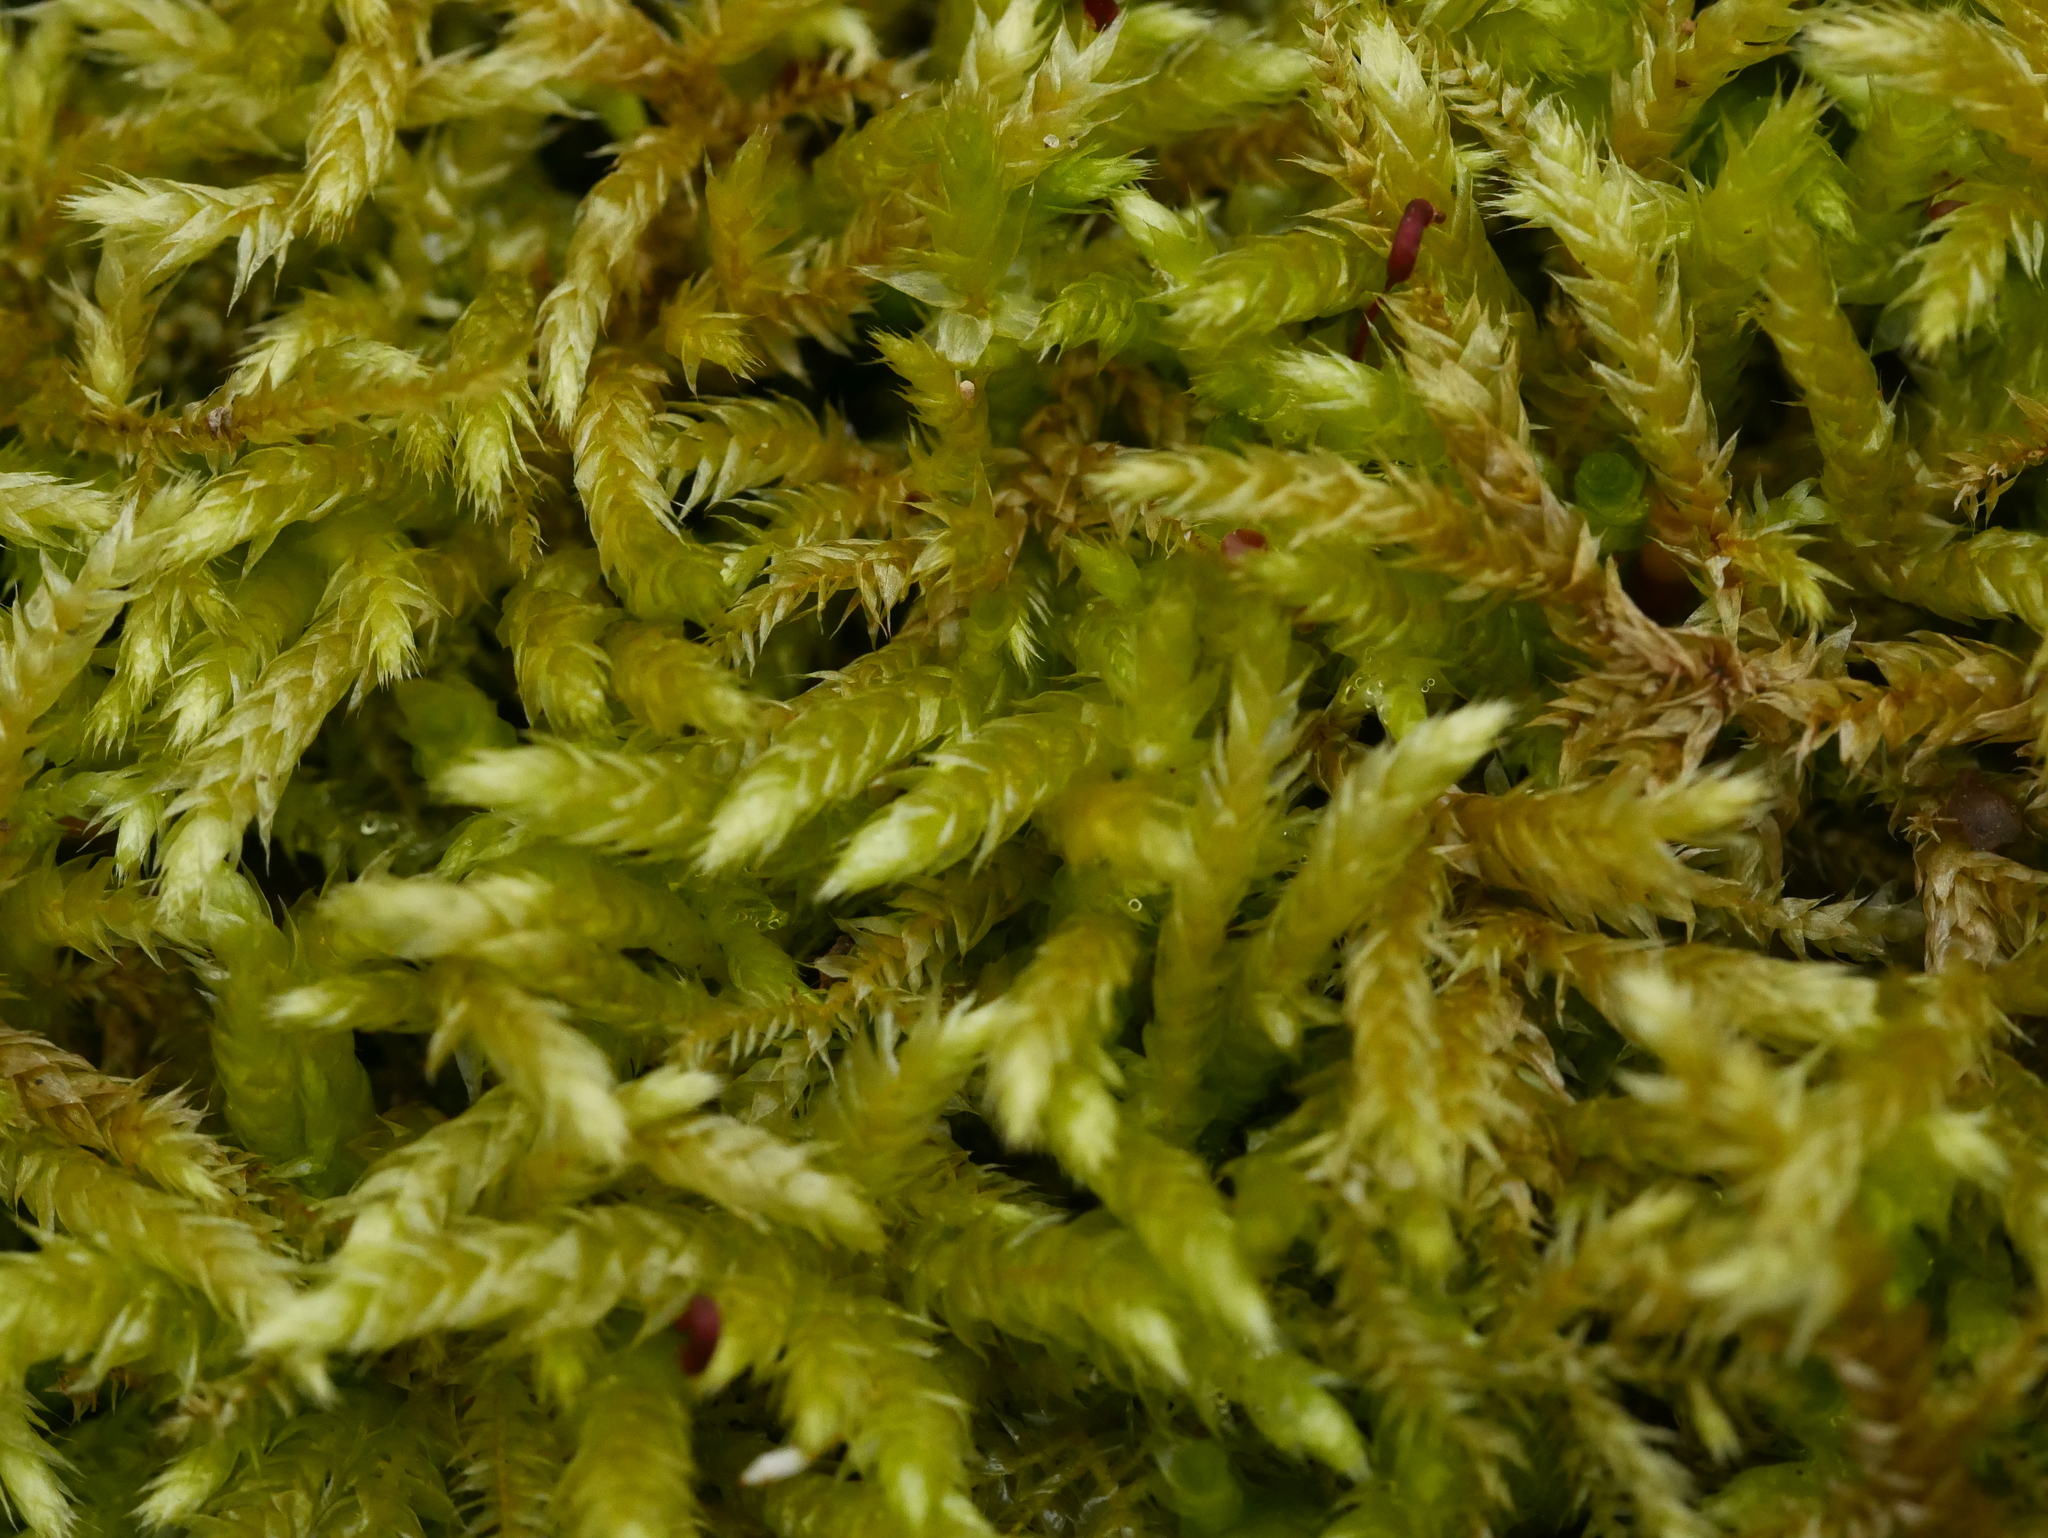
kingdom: Plantae
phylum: Bryophyta
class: Bryopsida
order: Hypnales
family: Brachytheciaceae
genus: Brachythecium
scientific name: Brachythecium rutabulum
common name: Rough-stalked feather-moss
